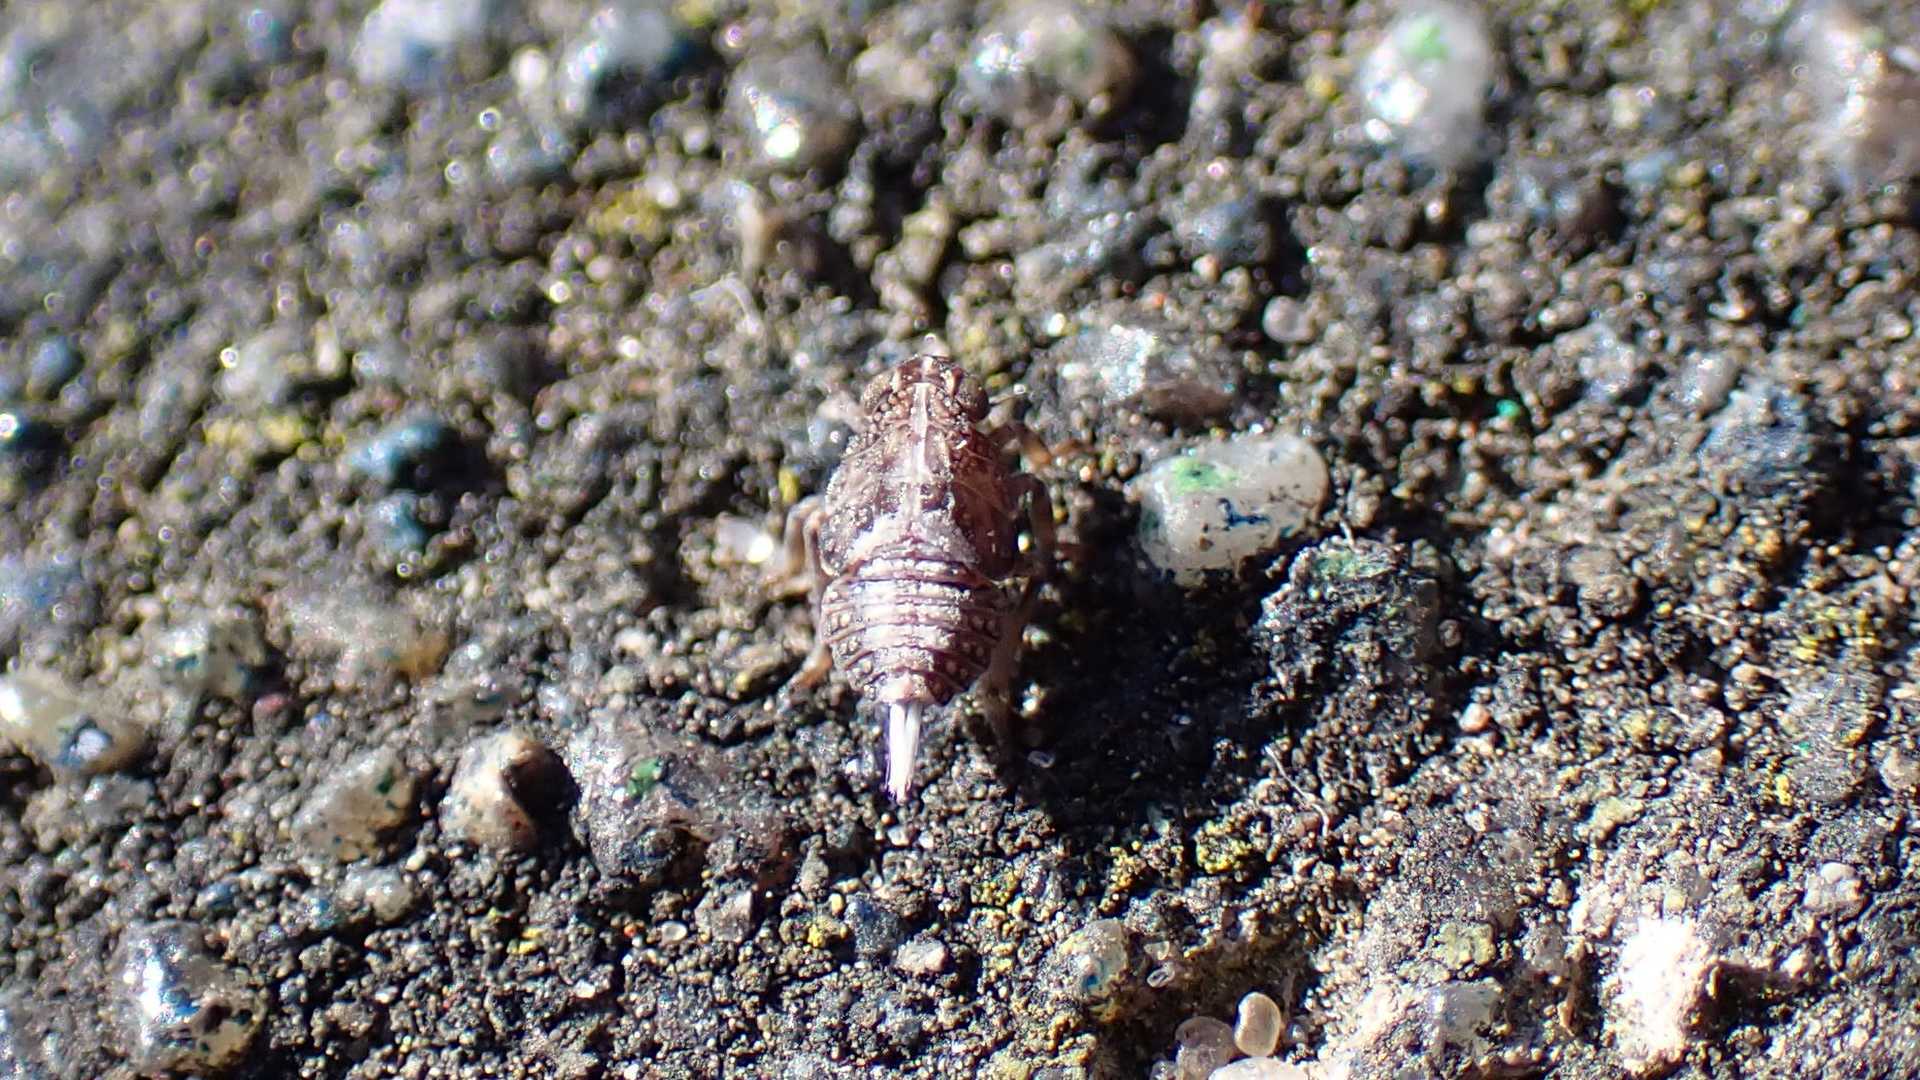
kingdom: Animalia
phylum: Arthropoda
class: Insecta
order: Hemiptera
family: Issidae
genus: Issus
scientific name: Issus
